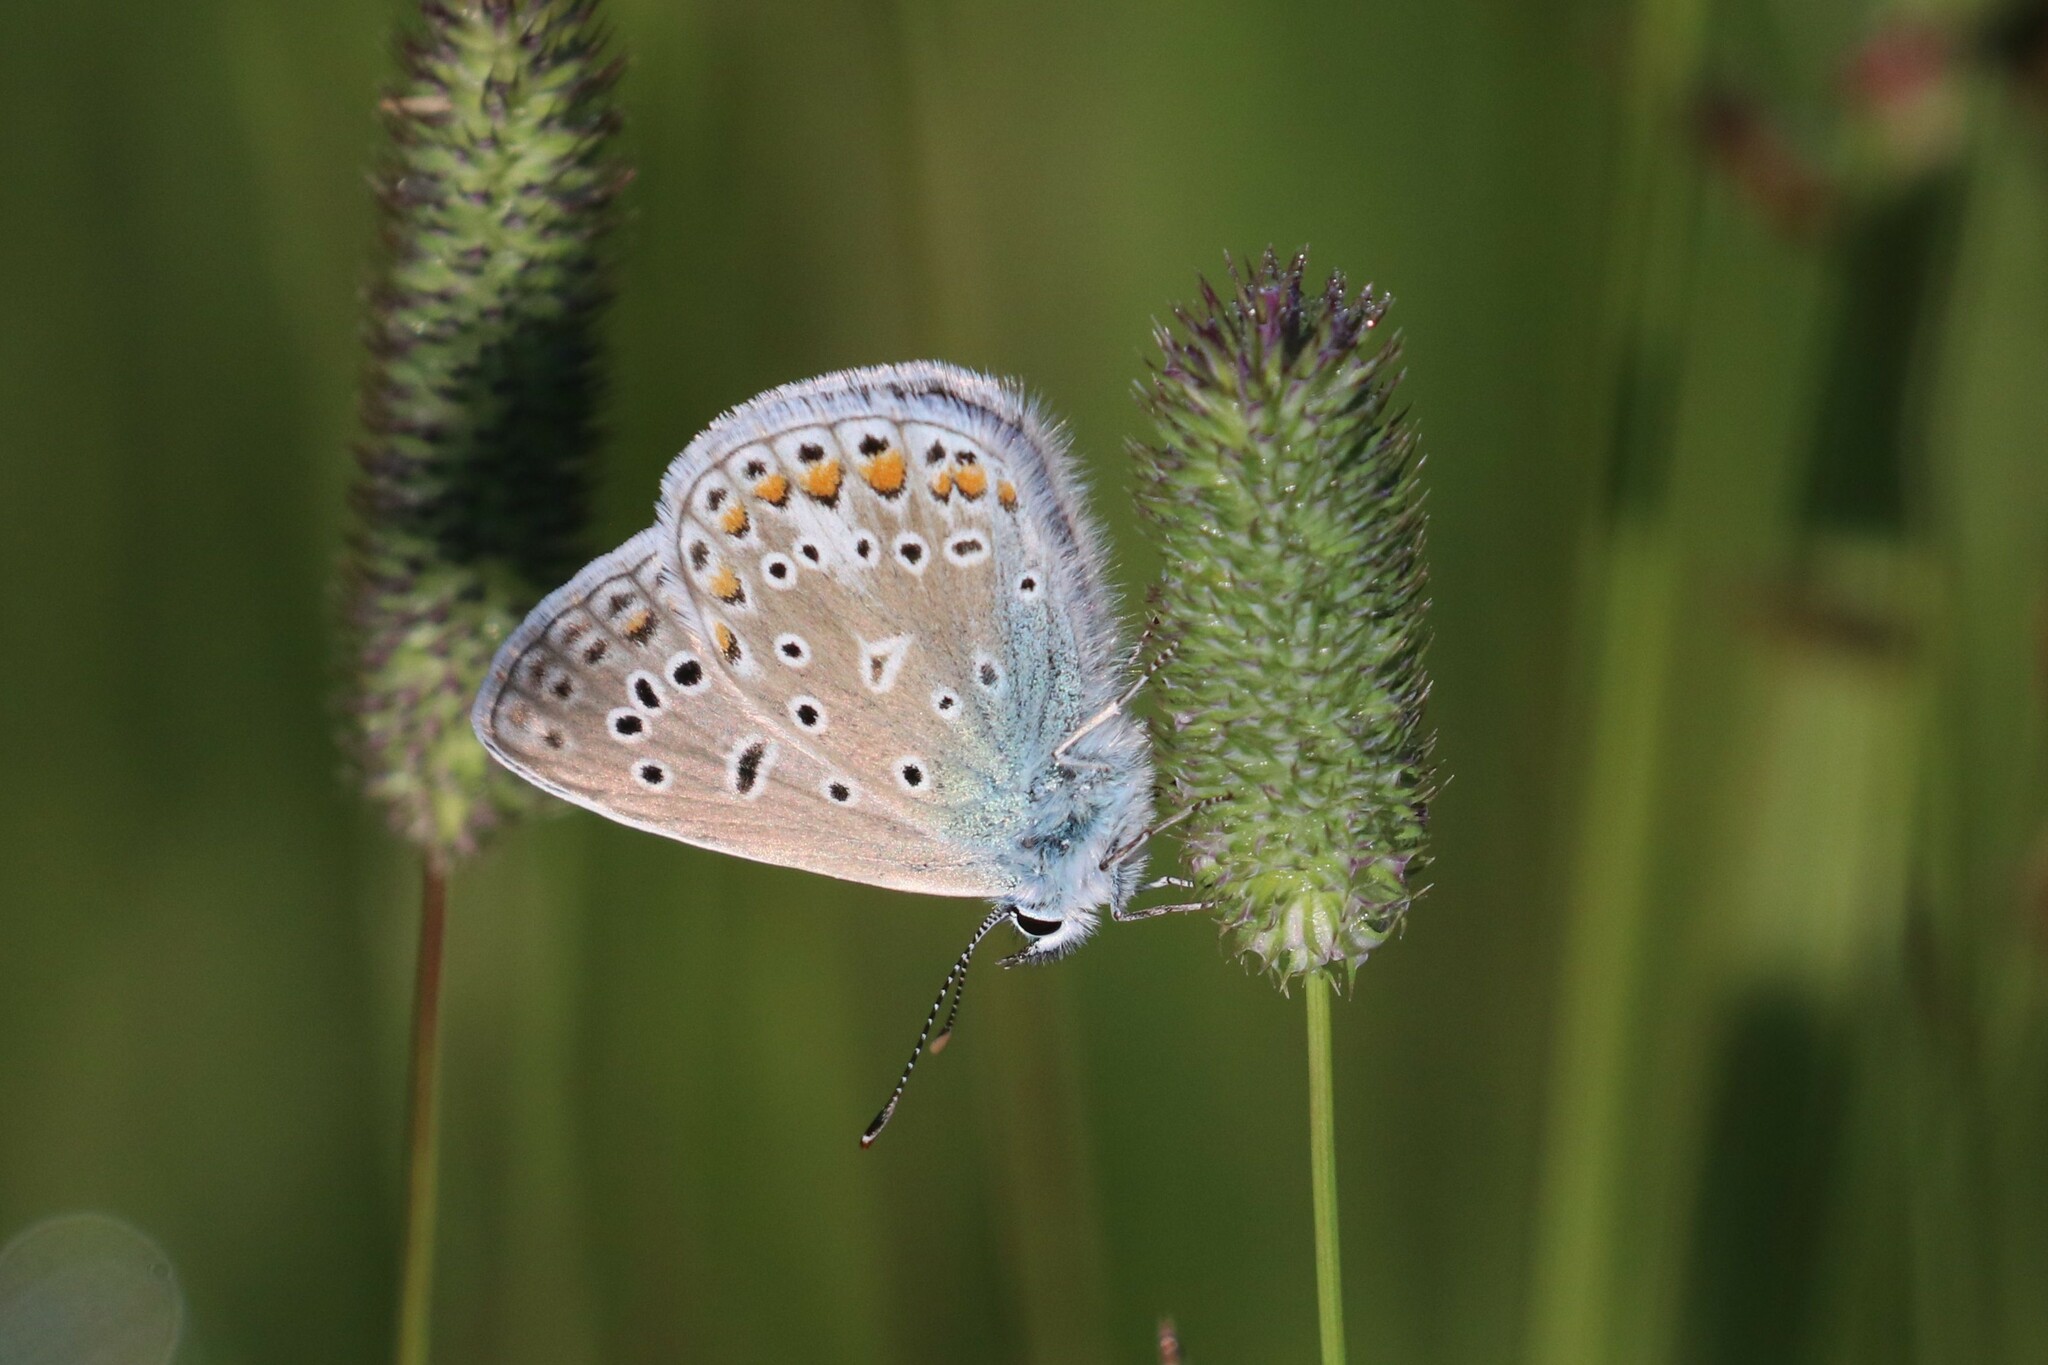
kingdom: Animalia
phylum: Arthropoda
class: Insecta
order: Lepidoptera
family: Lycaenidae
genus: Polyommatus
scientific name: Polyommatus icarus
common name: Common blue
